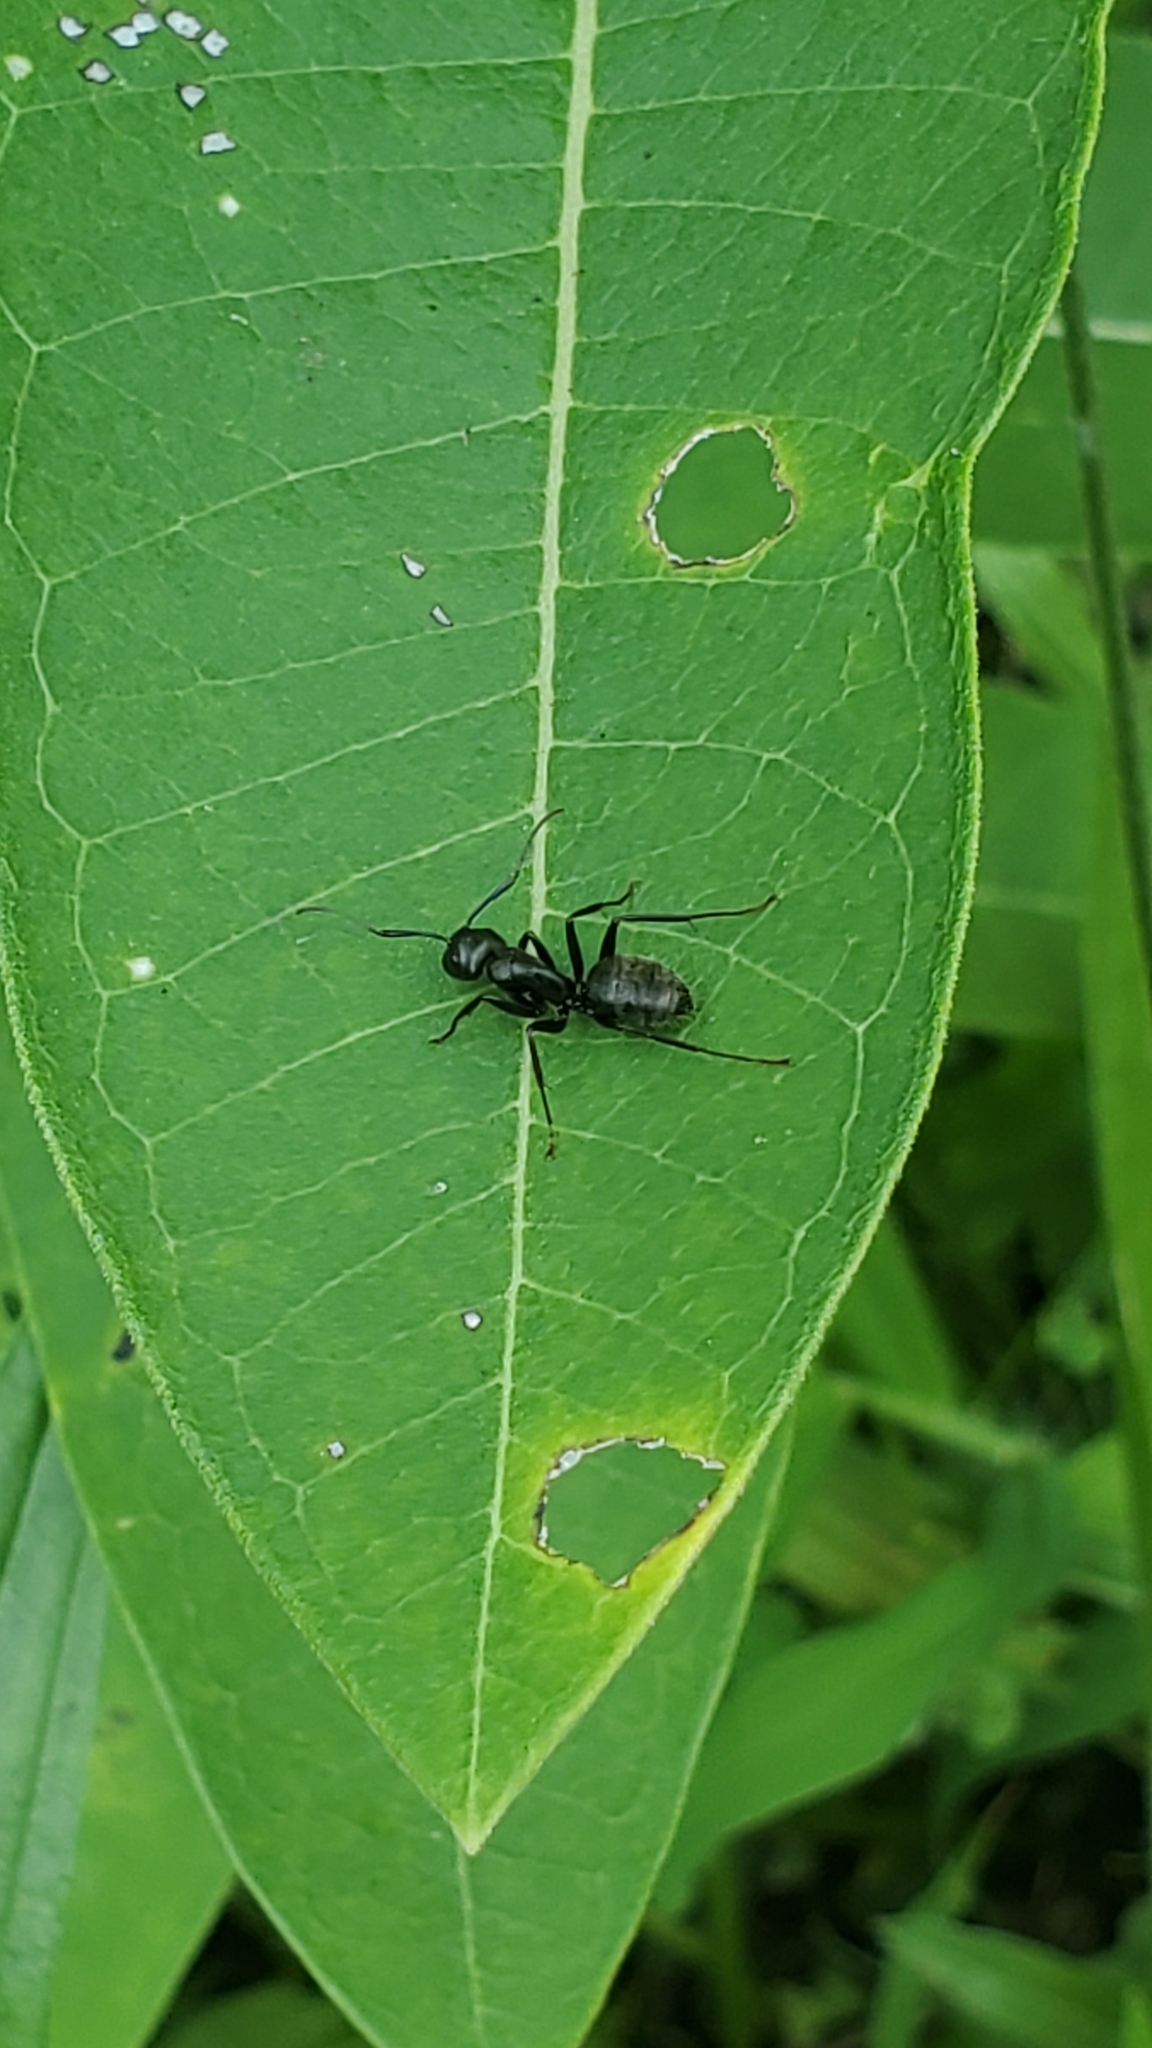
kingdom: Animalia
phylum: Arthropoda
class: Insecta
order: Hymenoptera
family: Formicidae
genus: Camponotus
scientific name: Camponotus pennsylvanicus
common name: Black carpenter ant
